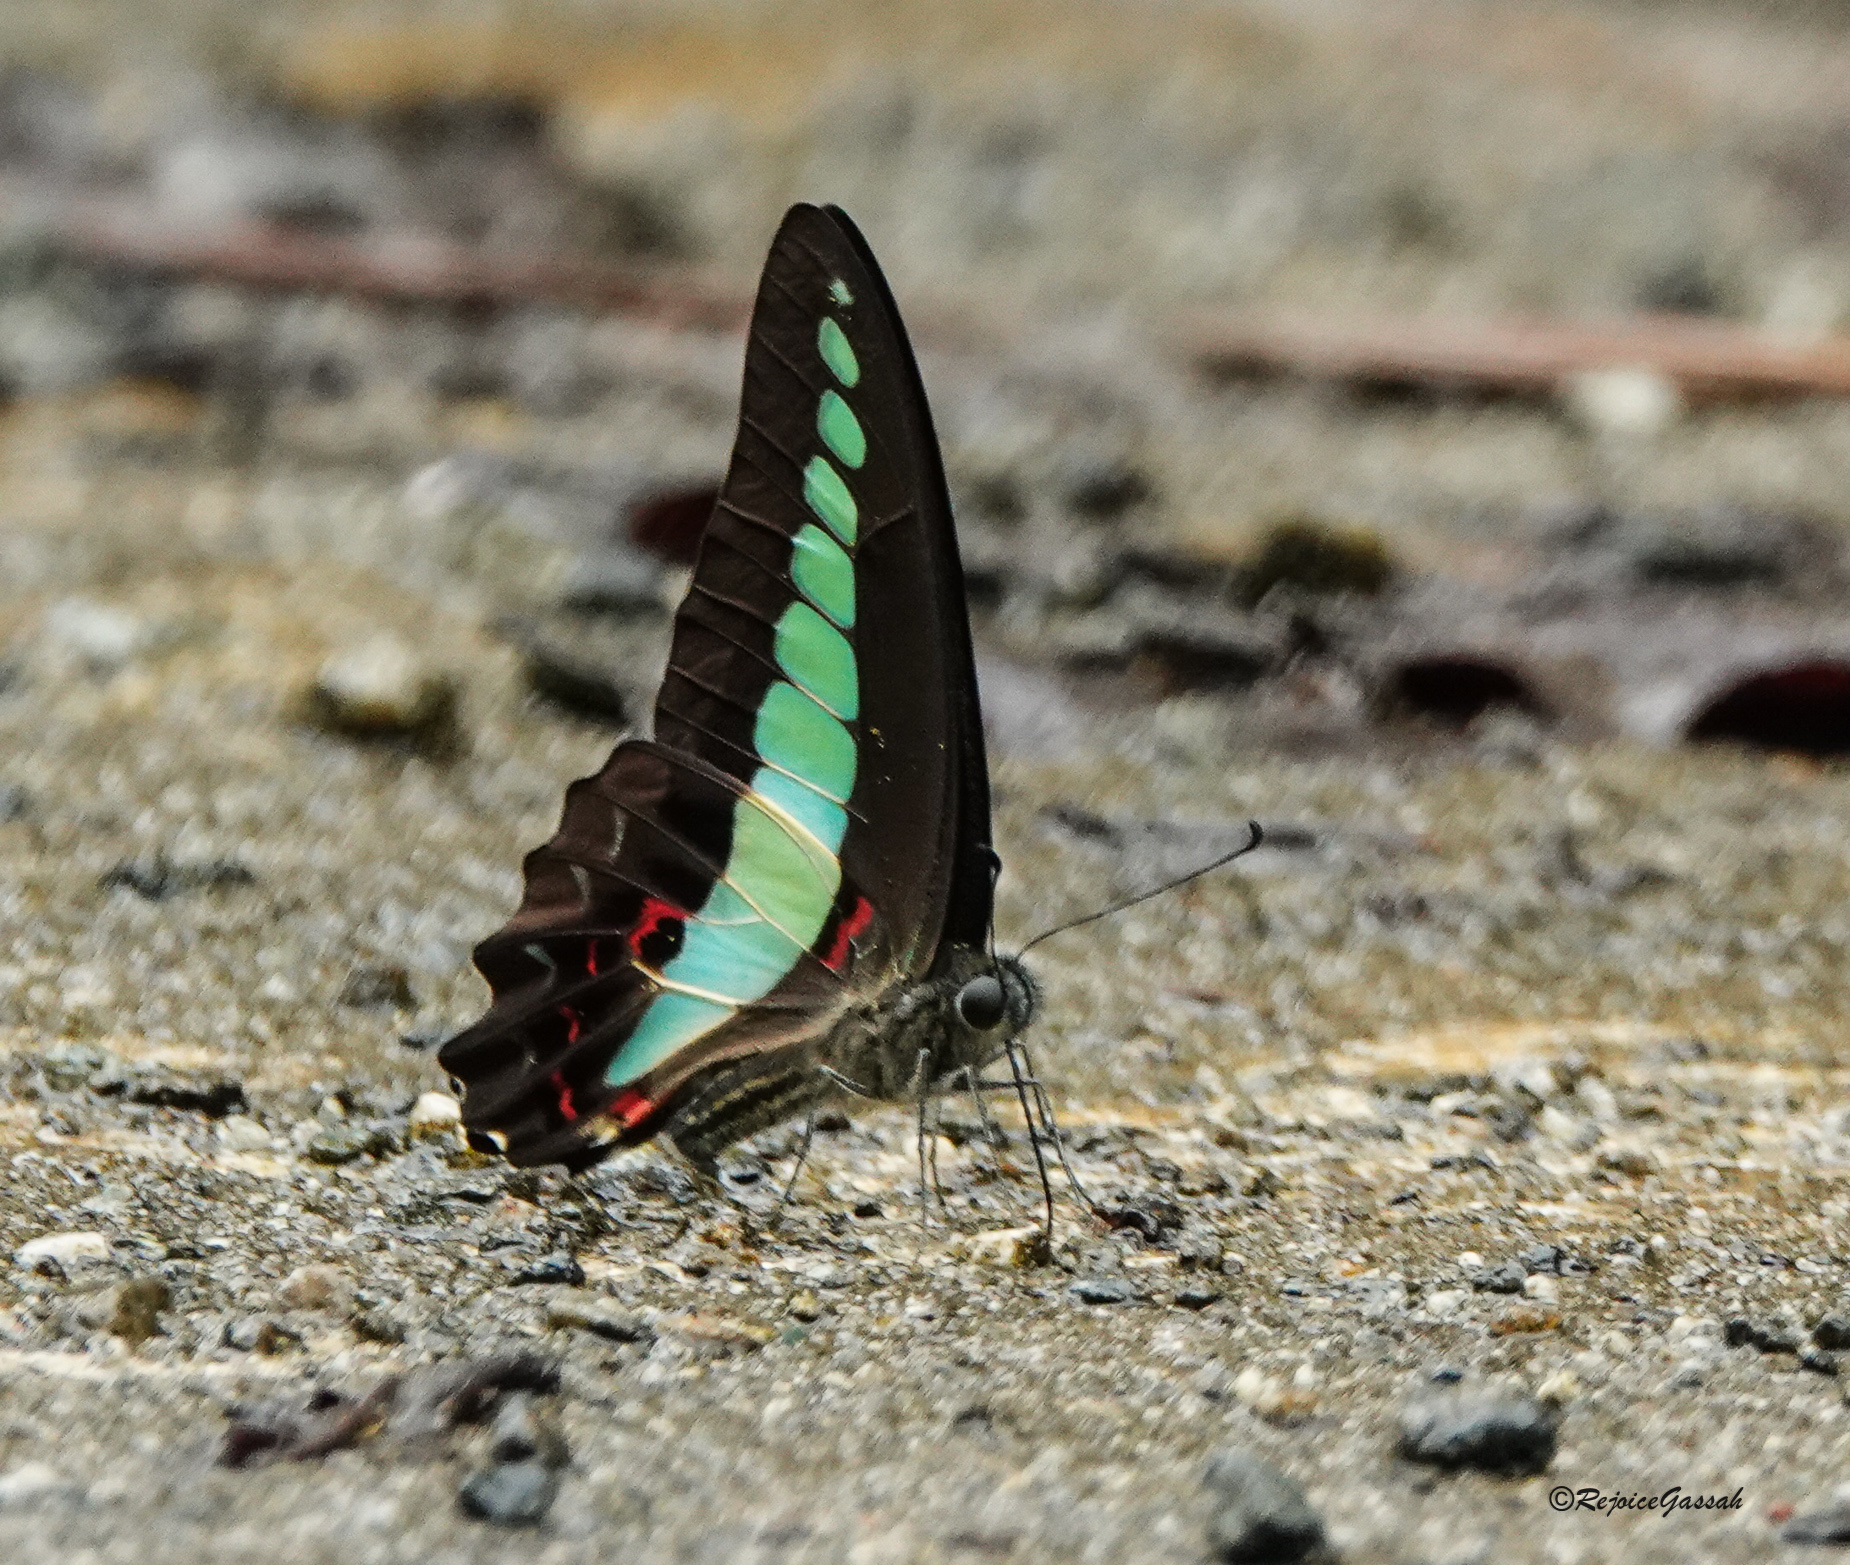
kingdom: Fungi
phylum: Ascomycota
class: Sordariomycetes
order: Microascales
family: Microascaceae
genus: Graphium
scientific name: Graphium sarpedon
